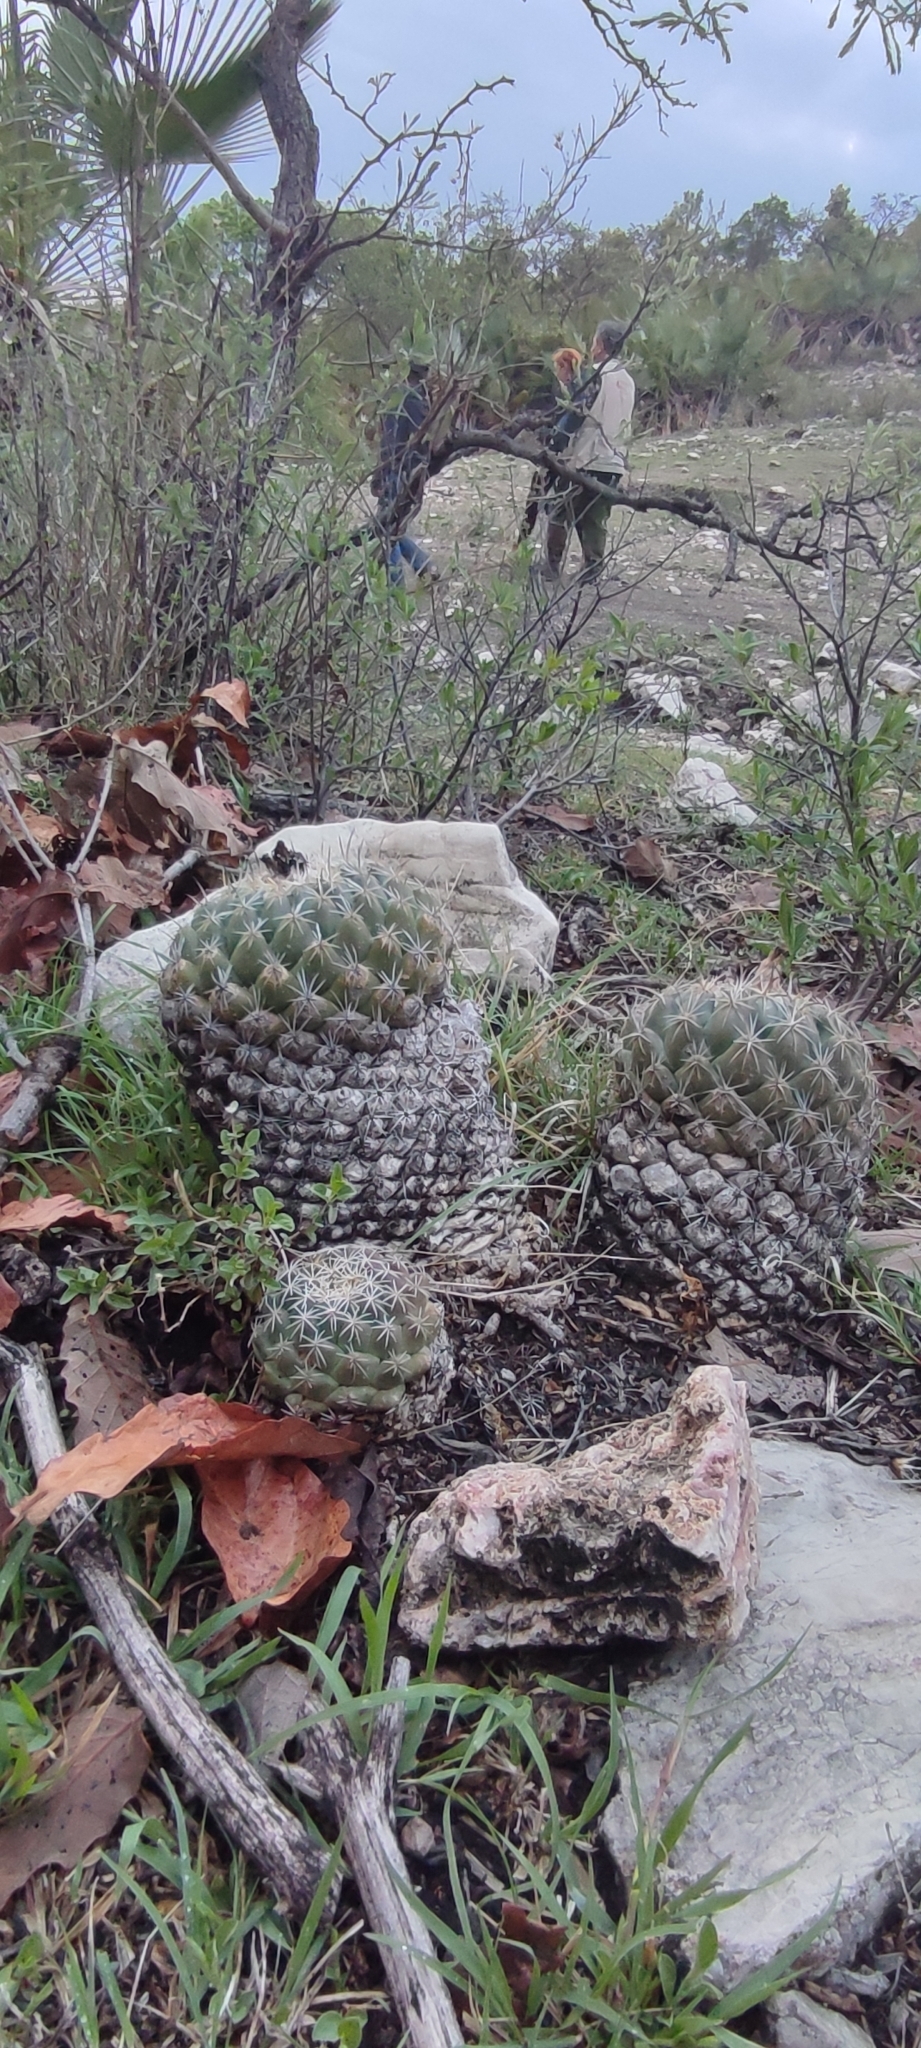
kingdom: Plantae
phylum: Tracheophyta
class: Magnoliopsida
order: Caryophyllales
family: Cactaceae
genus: Coryphantha
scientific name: Coryphantha elephantidens
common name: Elephant's tooth
